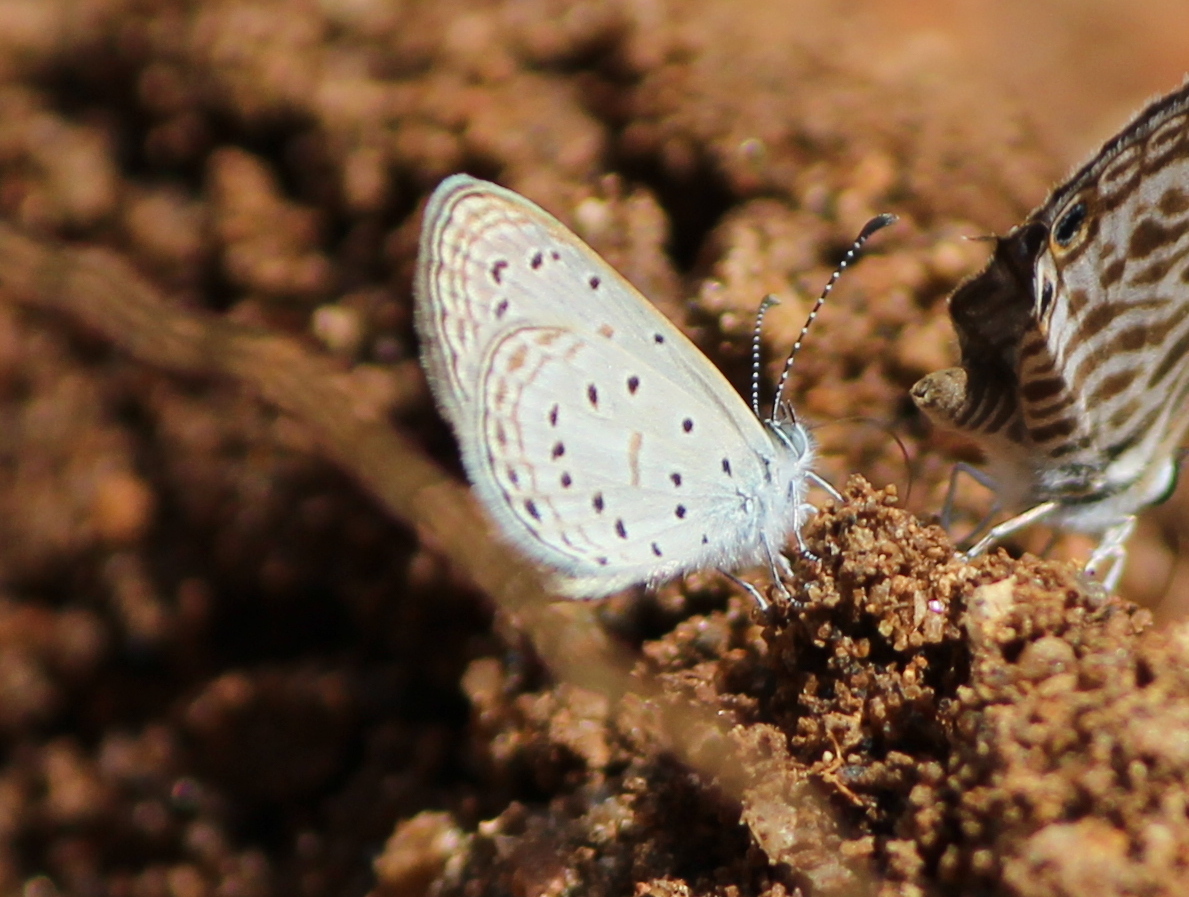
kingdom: Animalia
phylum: Arthropoda
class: Insecta
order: Lepidoptera
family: Lycaenidae
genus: Zizula
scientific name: Zizula hylax
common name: Gaika blue
